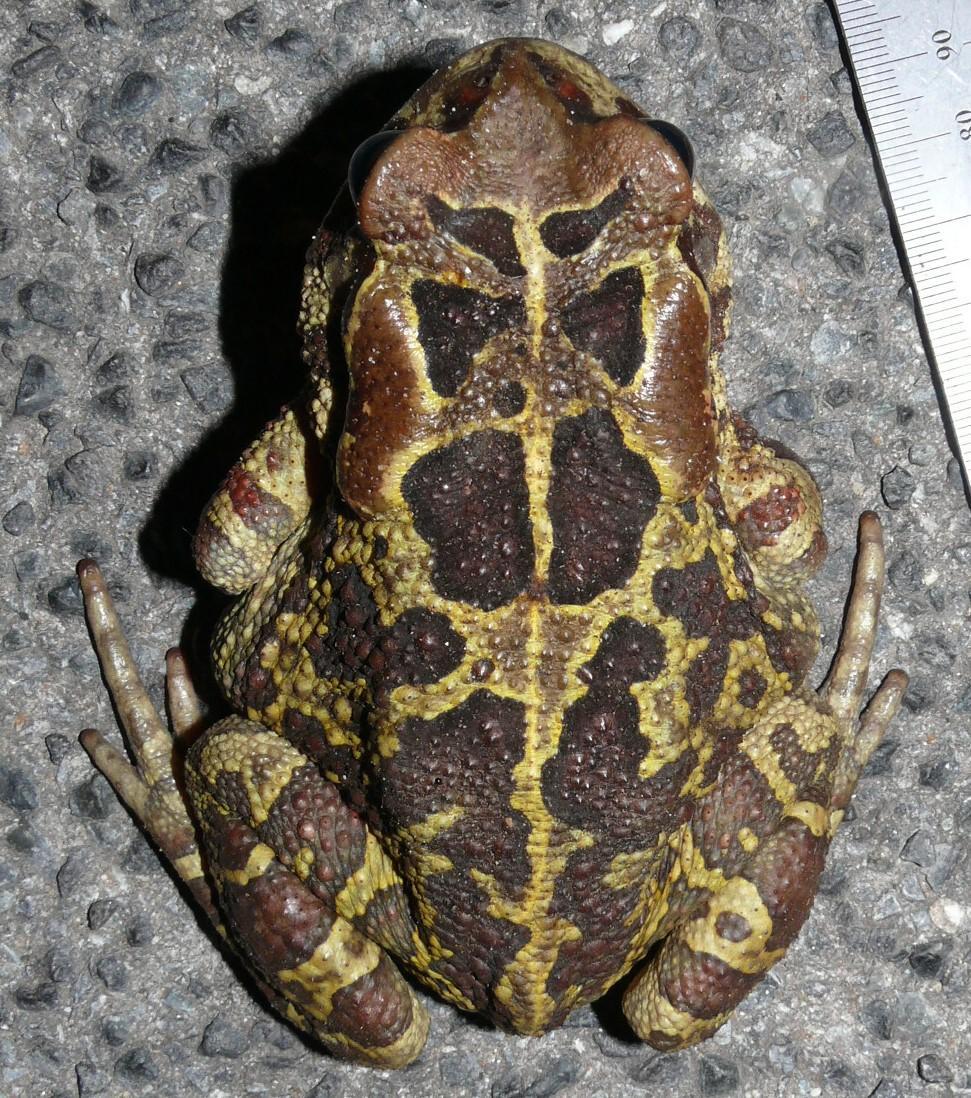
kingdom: Animalia
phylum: Chordata
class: Amphibia
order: Anura
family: Bufonidae
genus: Sclerophrys
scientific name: Sclerophrys pantherina
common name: Panther toad
